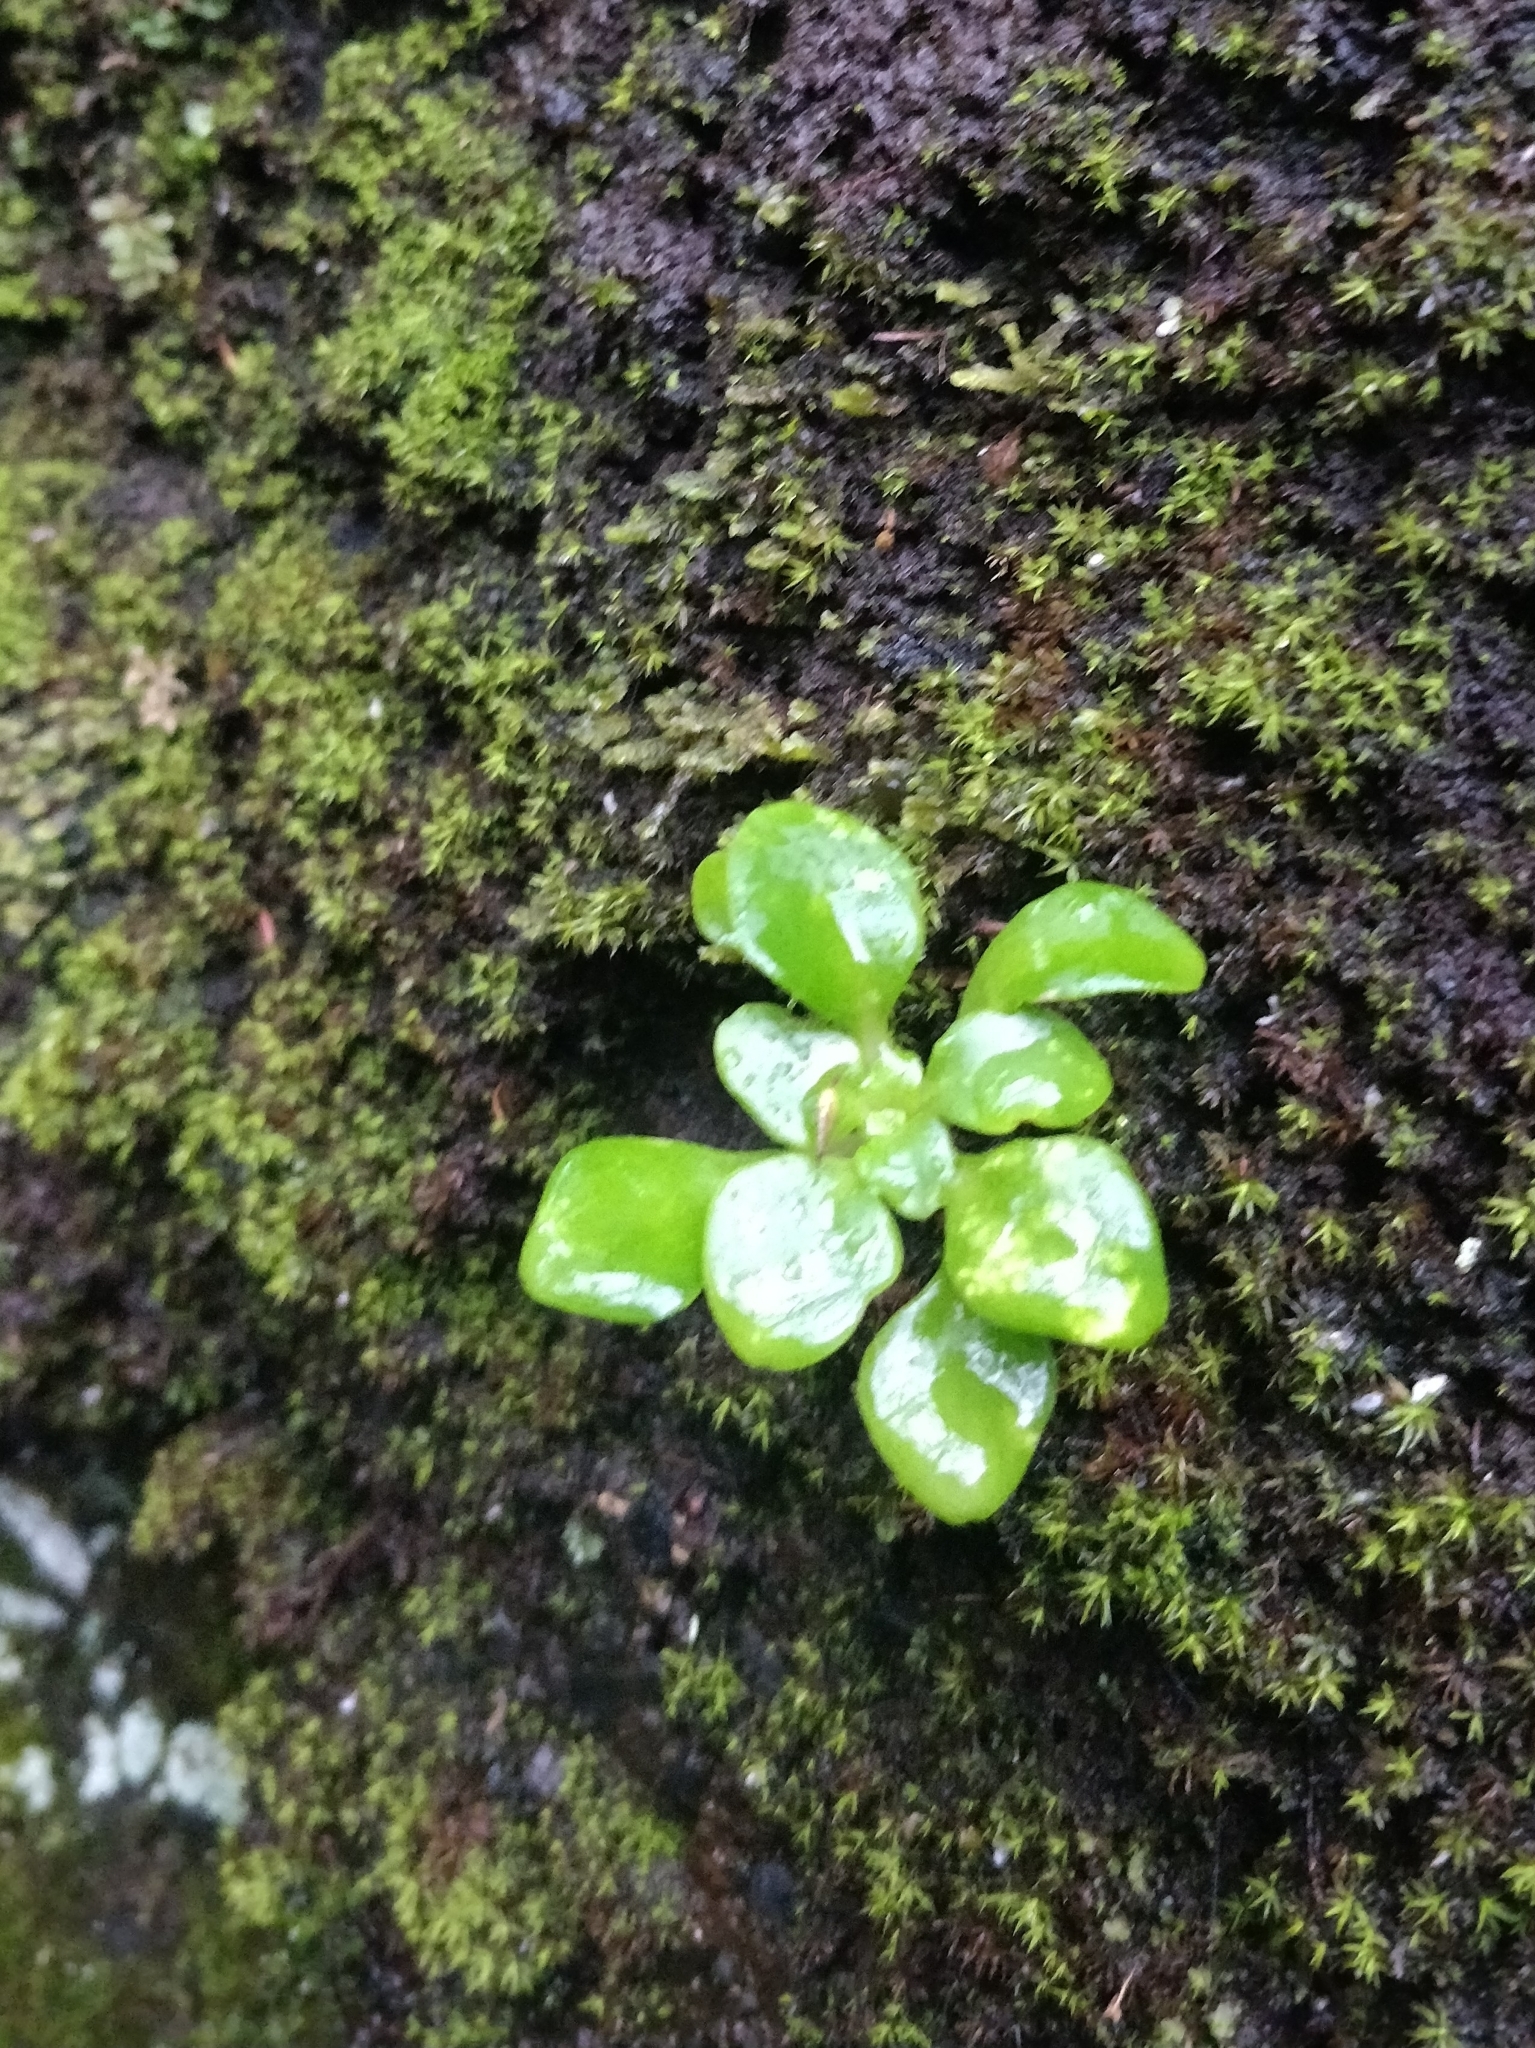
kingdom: Plantae
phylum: Tracheophyta
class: Magnoliopsida
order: Saxifragales
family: Crassulaceae
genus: Aichryson
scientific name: Aichryson divaricatum
